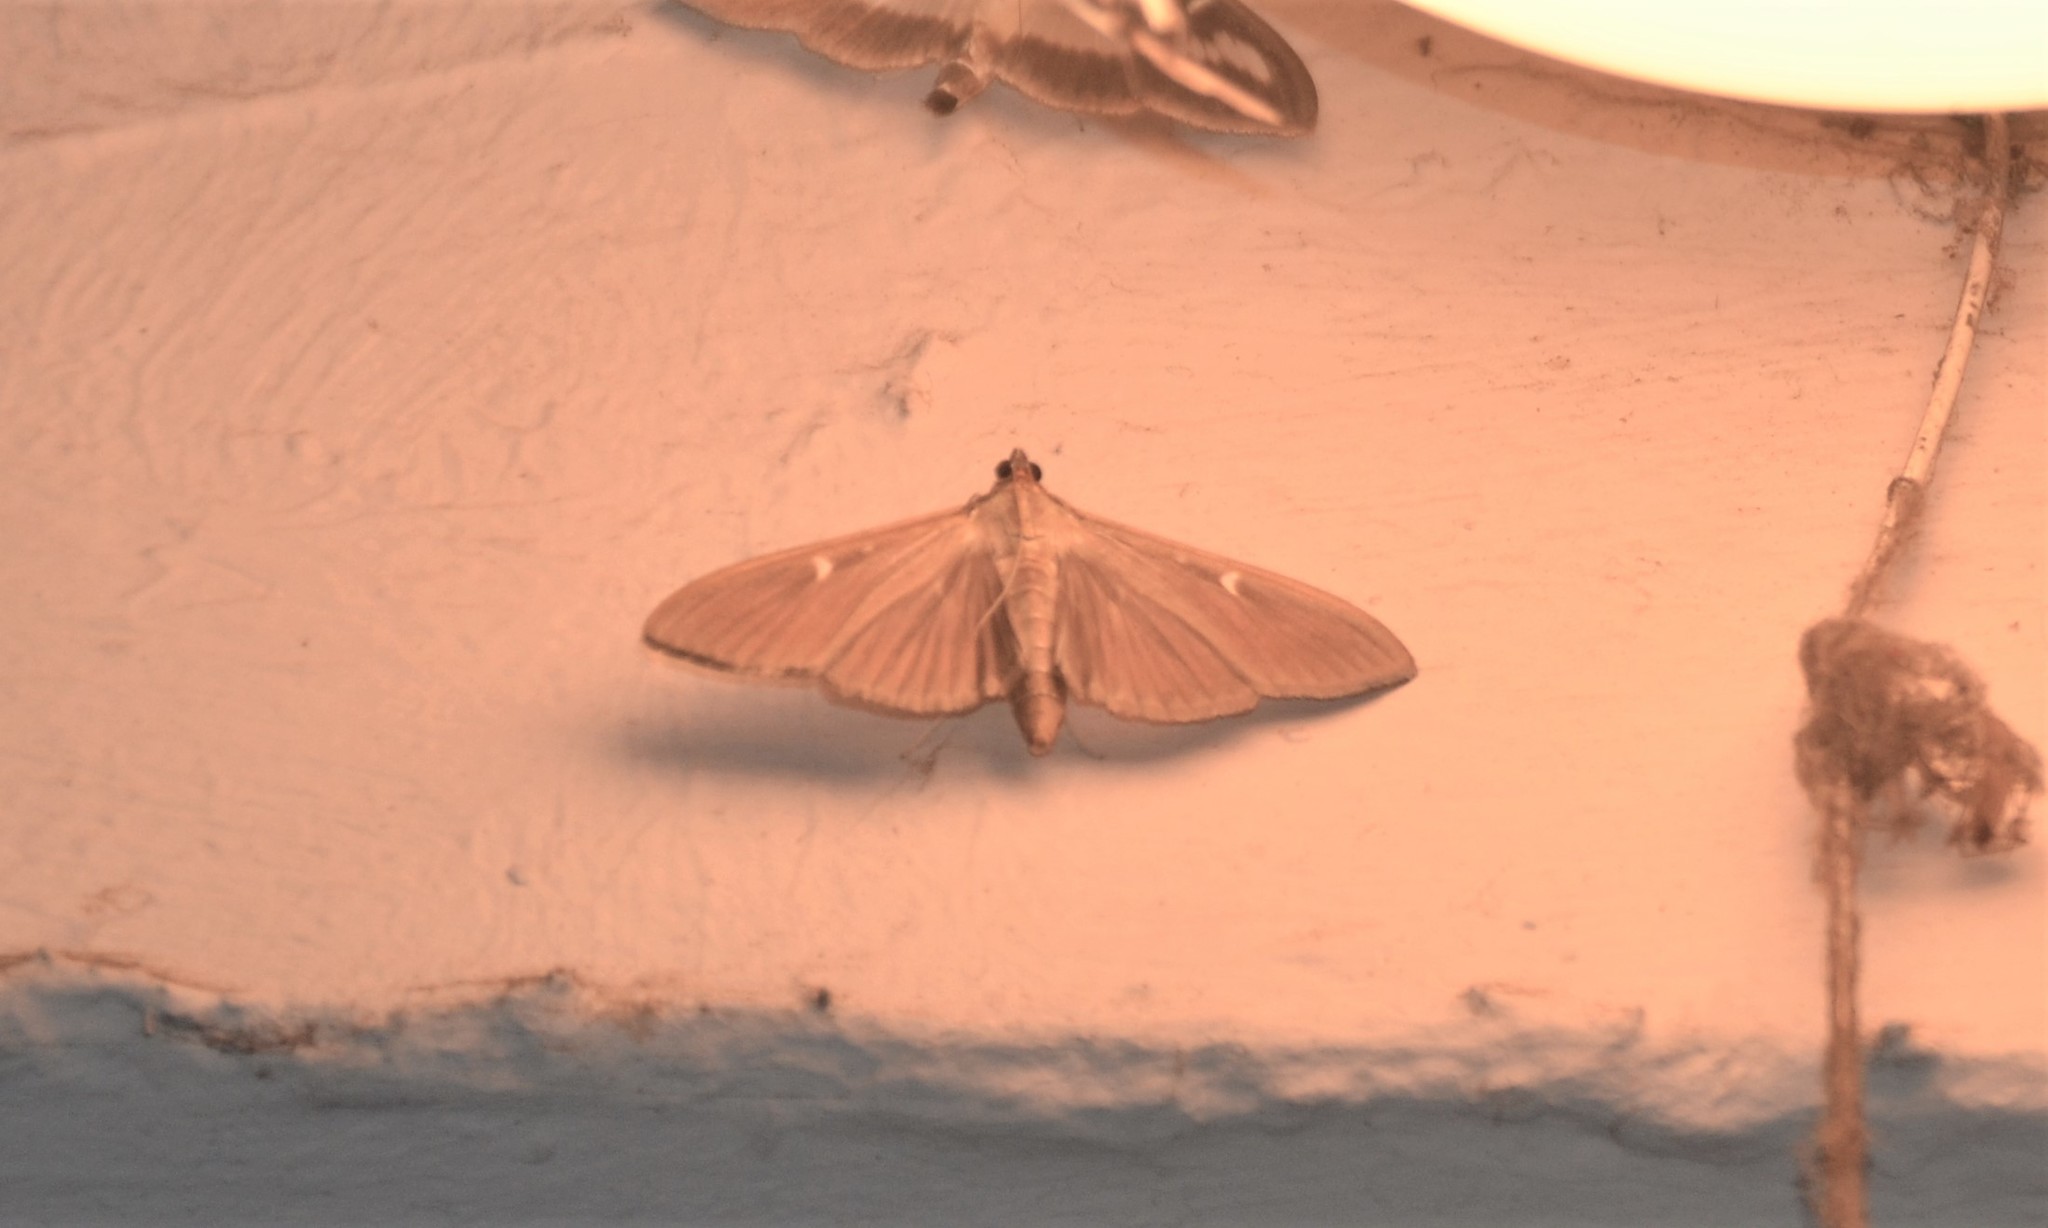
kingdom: Animalia
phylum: Arthropoda
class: Insecta
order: Lepidoptera
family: Crambidae
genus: Cydalima
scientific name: Cydalima perspectalis
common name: Box tree moth
